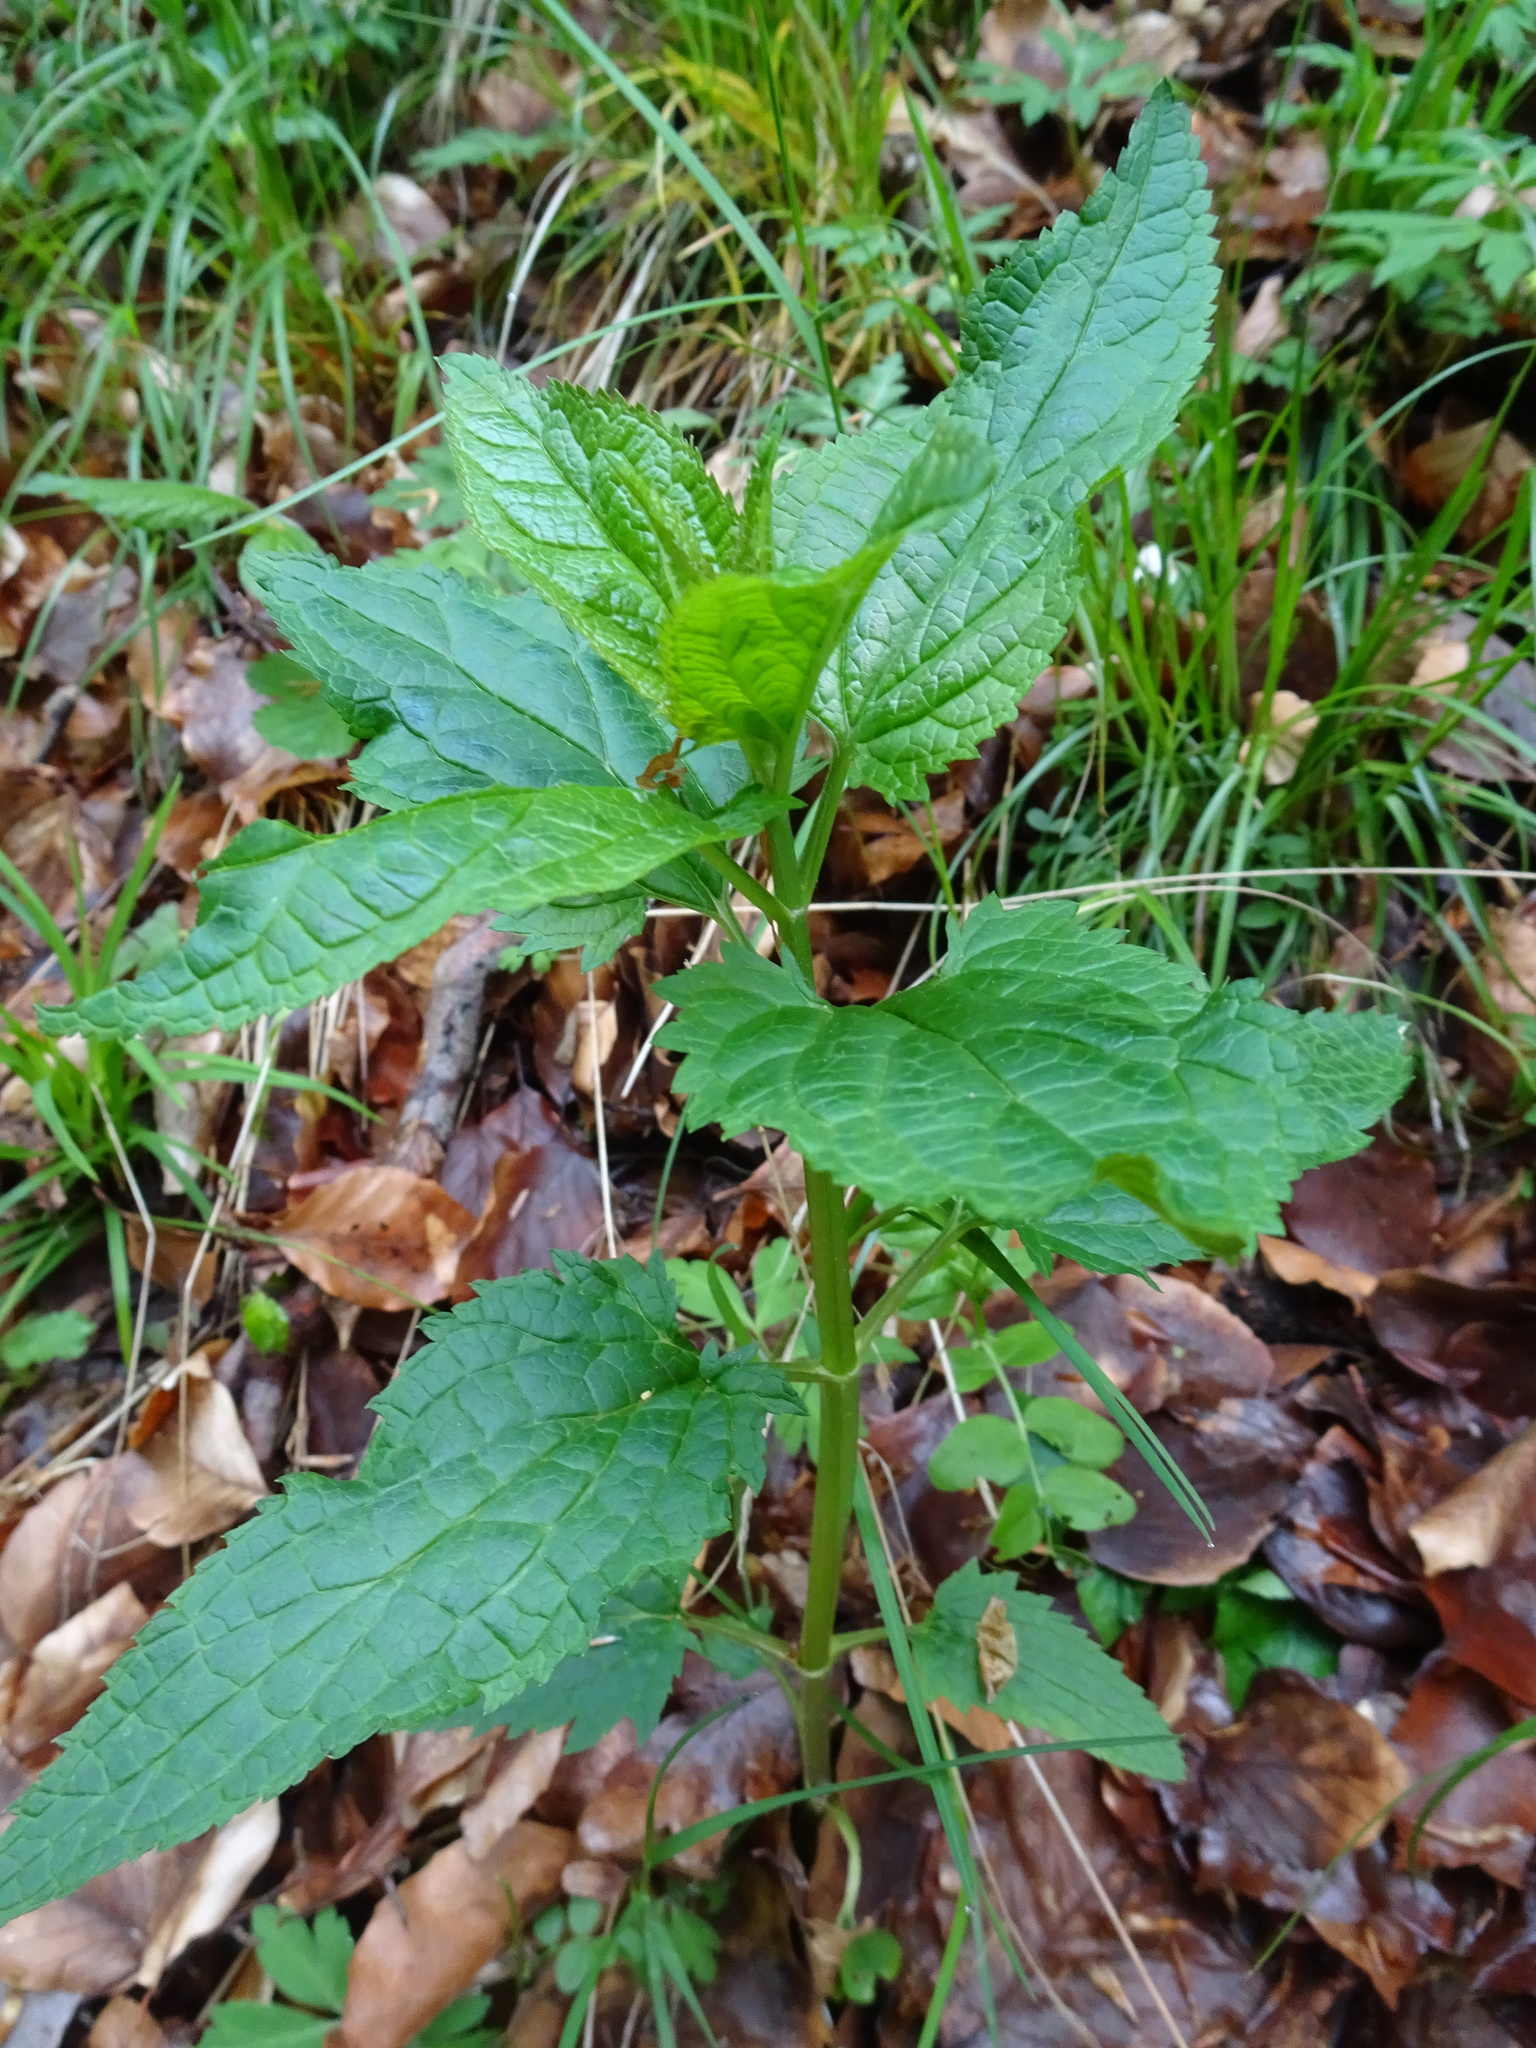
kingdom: Plantae
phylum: Tracheophyta
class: Magnoliopsida
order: Lamiales
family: Scrophulariaceae
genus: Scrophularia
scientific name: Scrophularia nodosa
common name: Common figwort
